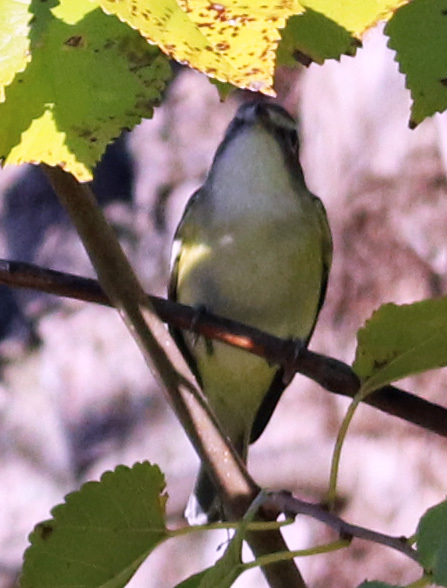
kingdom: Animalia
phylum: Chordata
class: Aves
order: Passeriformes
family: Vireonidae
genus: Vireo
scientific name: Vireo solitarius
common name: Blue-headed vireo
